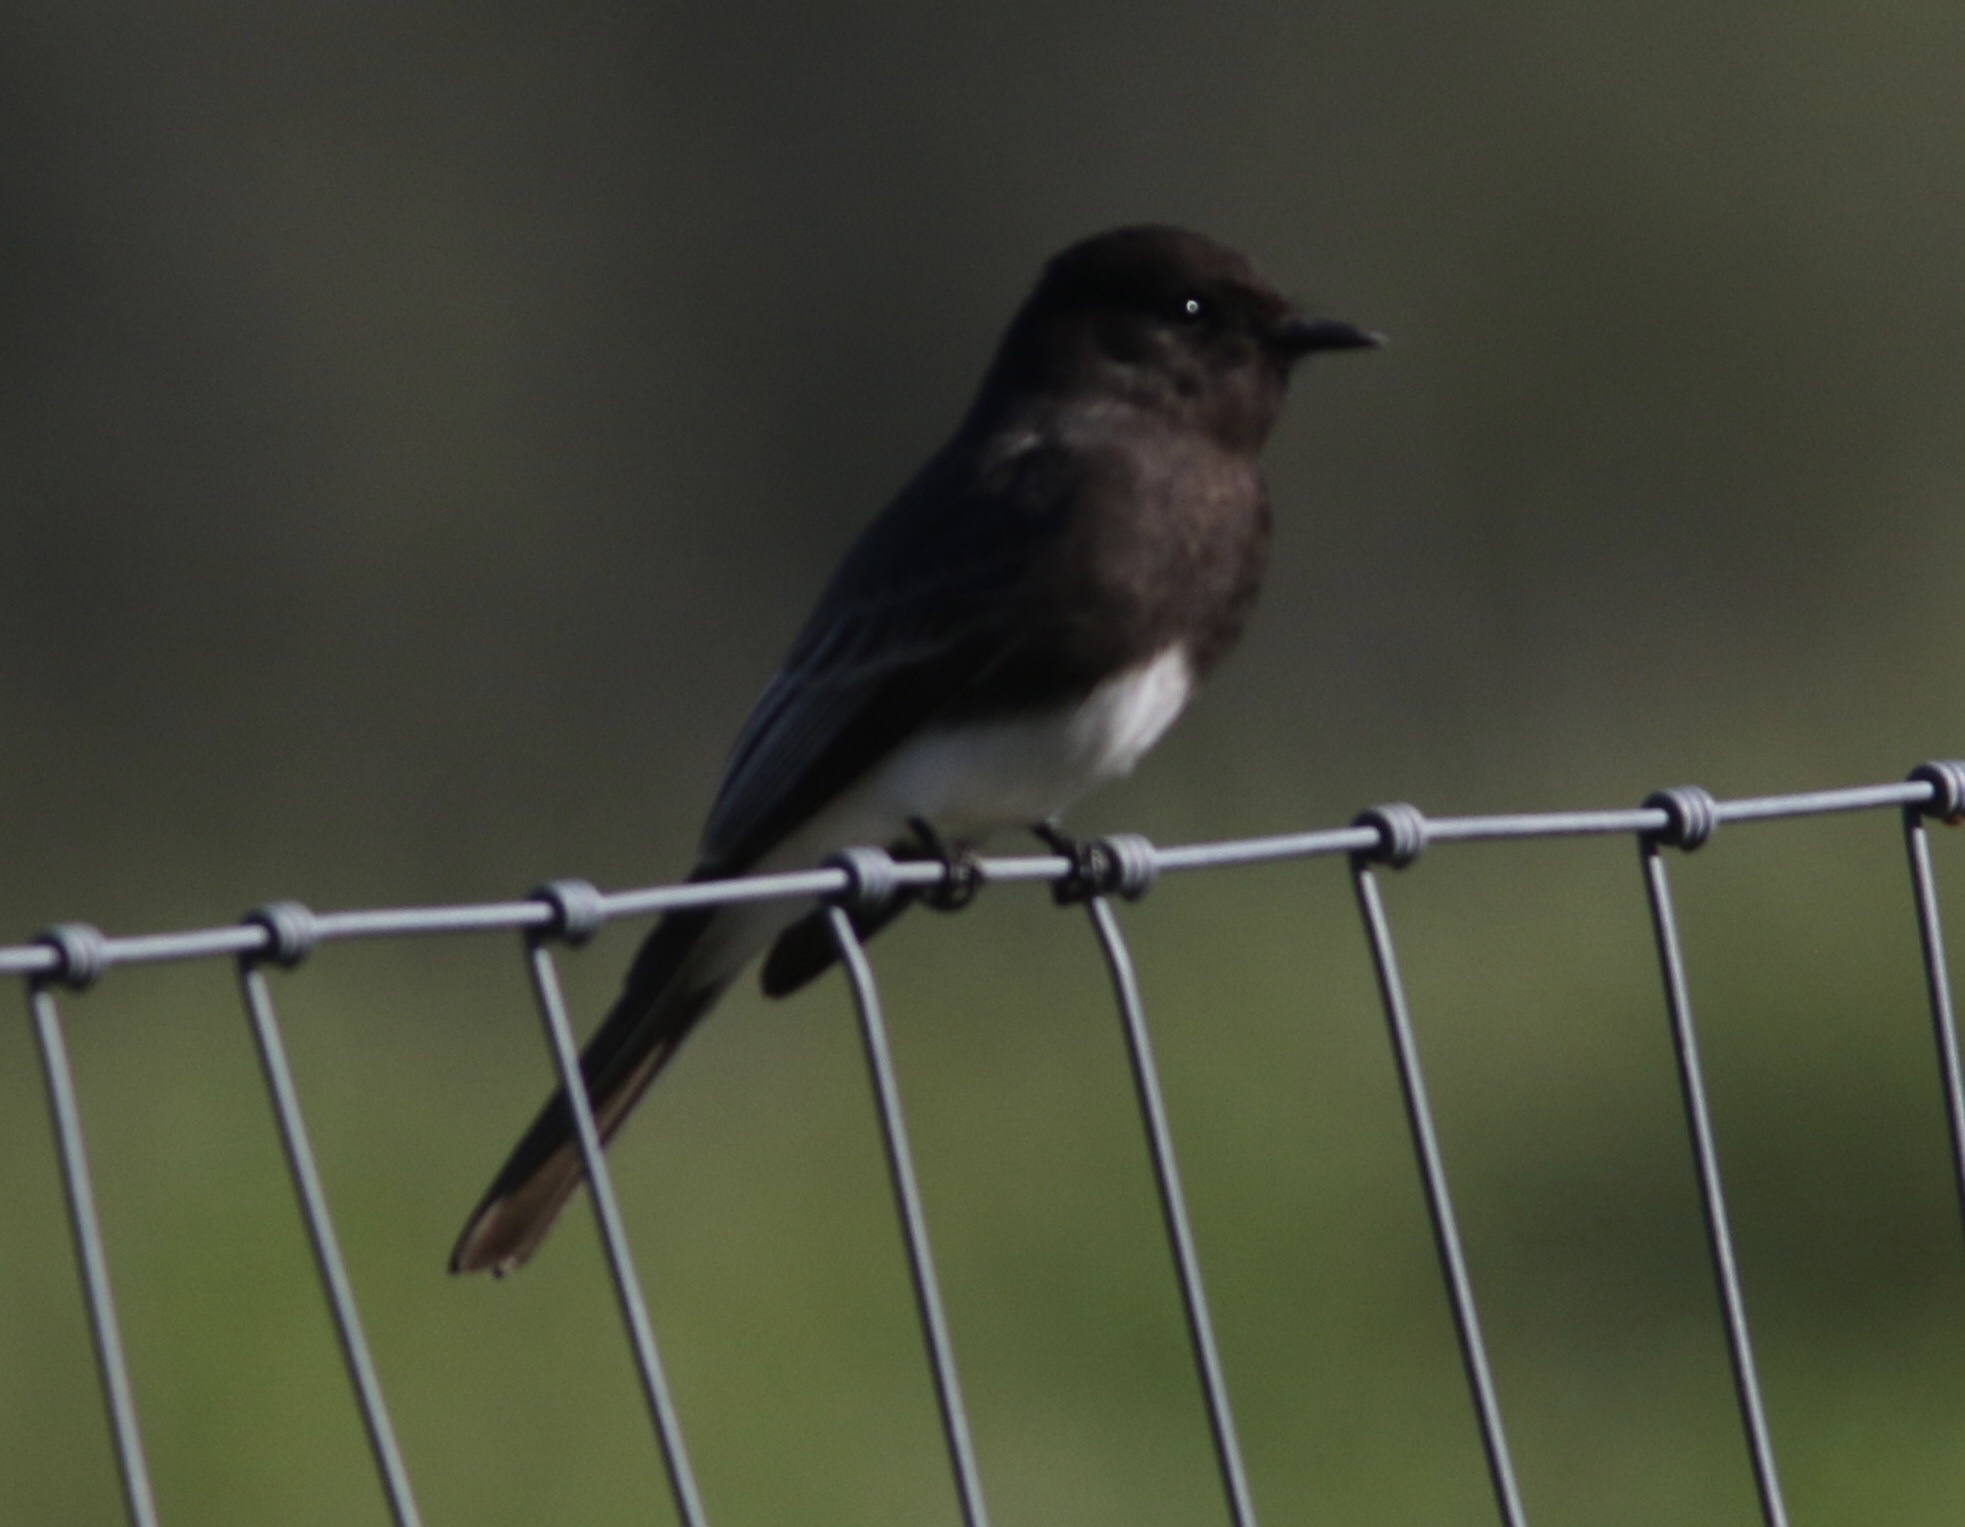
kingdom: Animalia
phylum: Chordata
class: Aves
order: Passeriformes
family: Tyrannidae
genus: Sayornis
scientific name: Sayornis nigricans
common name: Black phoebe
